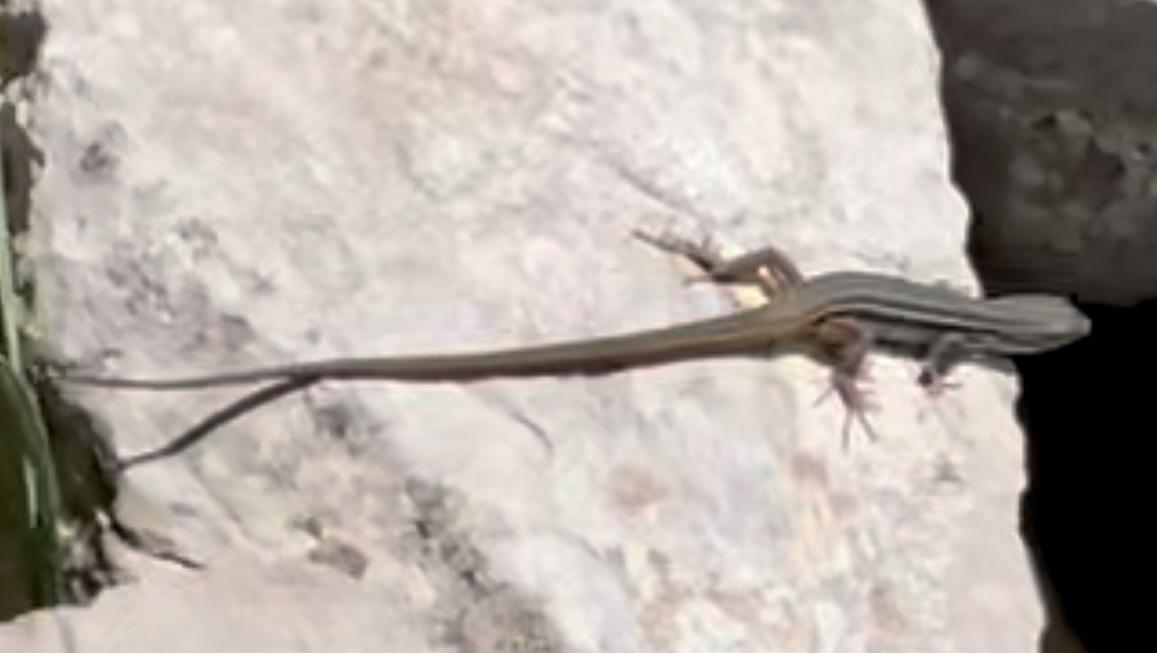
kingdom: Animalia
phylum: Chordata
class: Squamata
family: Lacertidae
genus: Psammodromus
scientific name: Psammodromus algirus
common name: Algerian psammodromus
